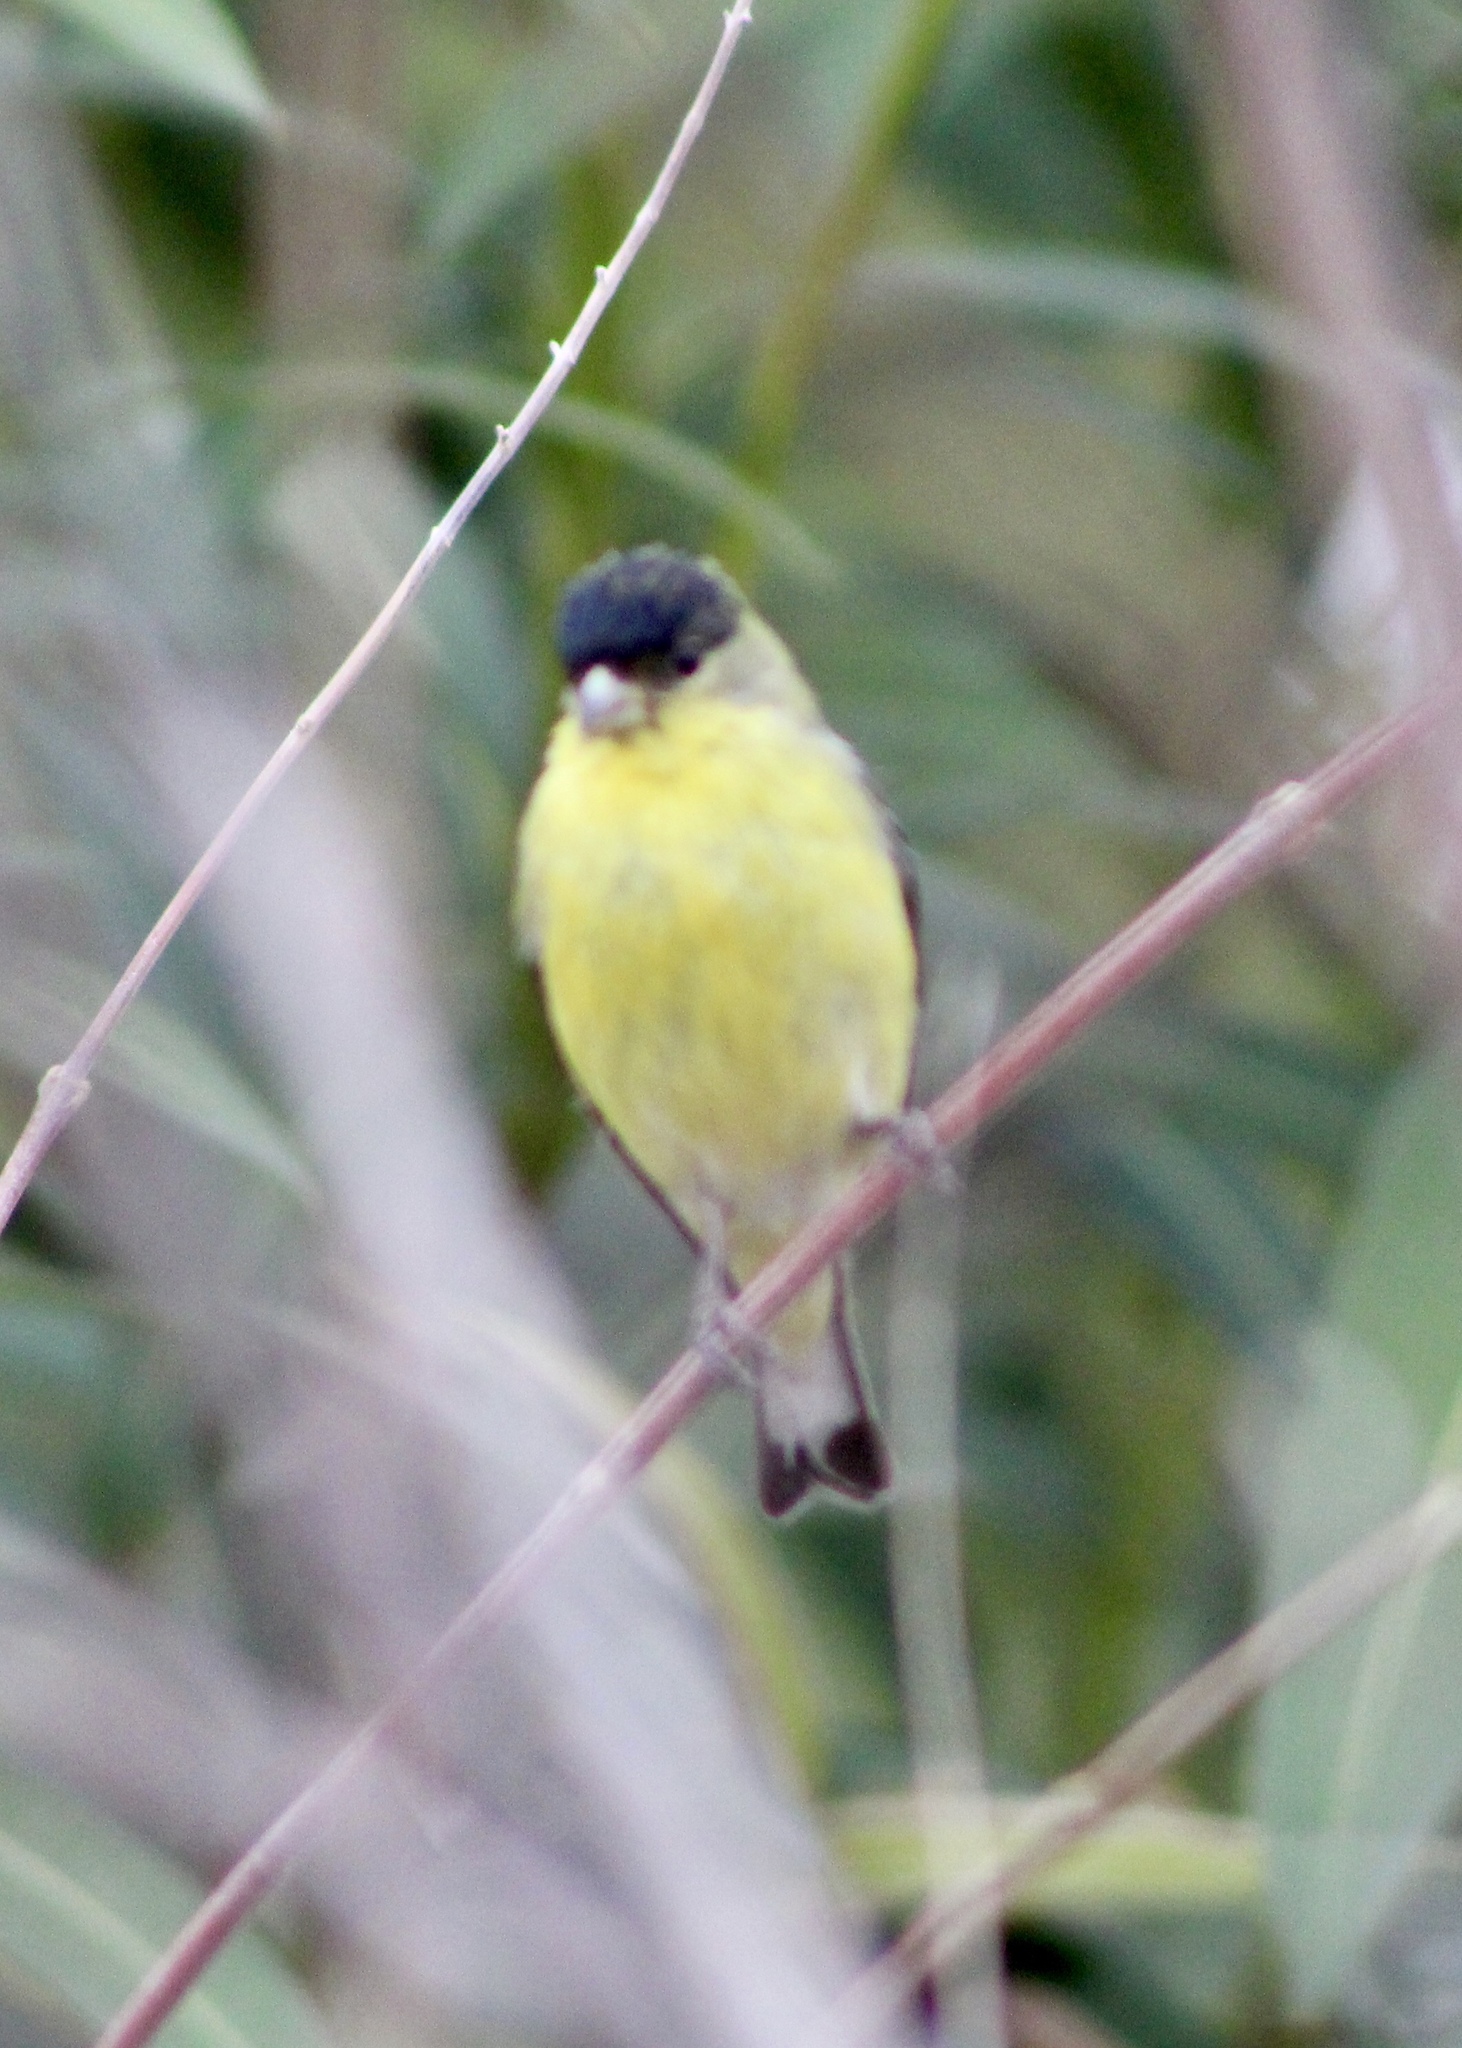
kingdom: Animalia
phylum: Chordata
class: Aves
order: Passeriformes
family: Fringillidae
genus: Spinus
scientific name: Spinus psaltria
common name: Lesser goldfinch
